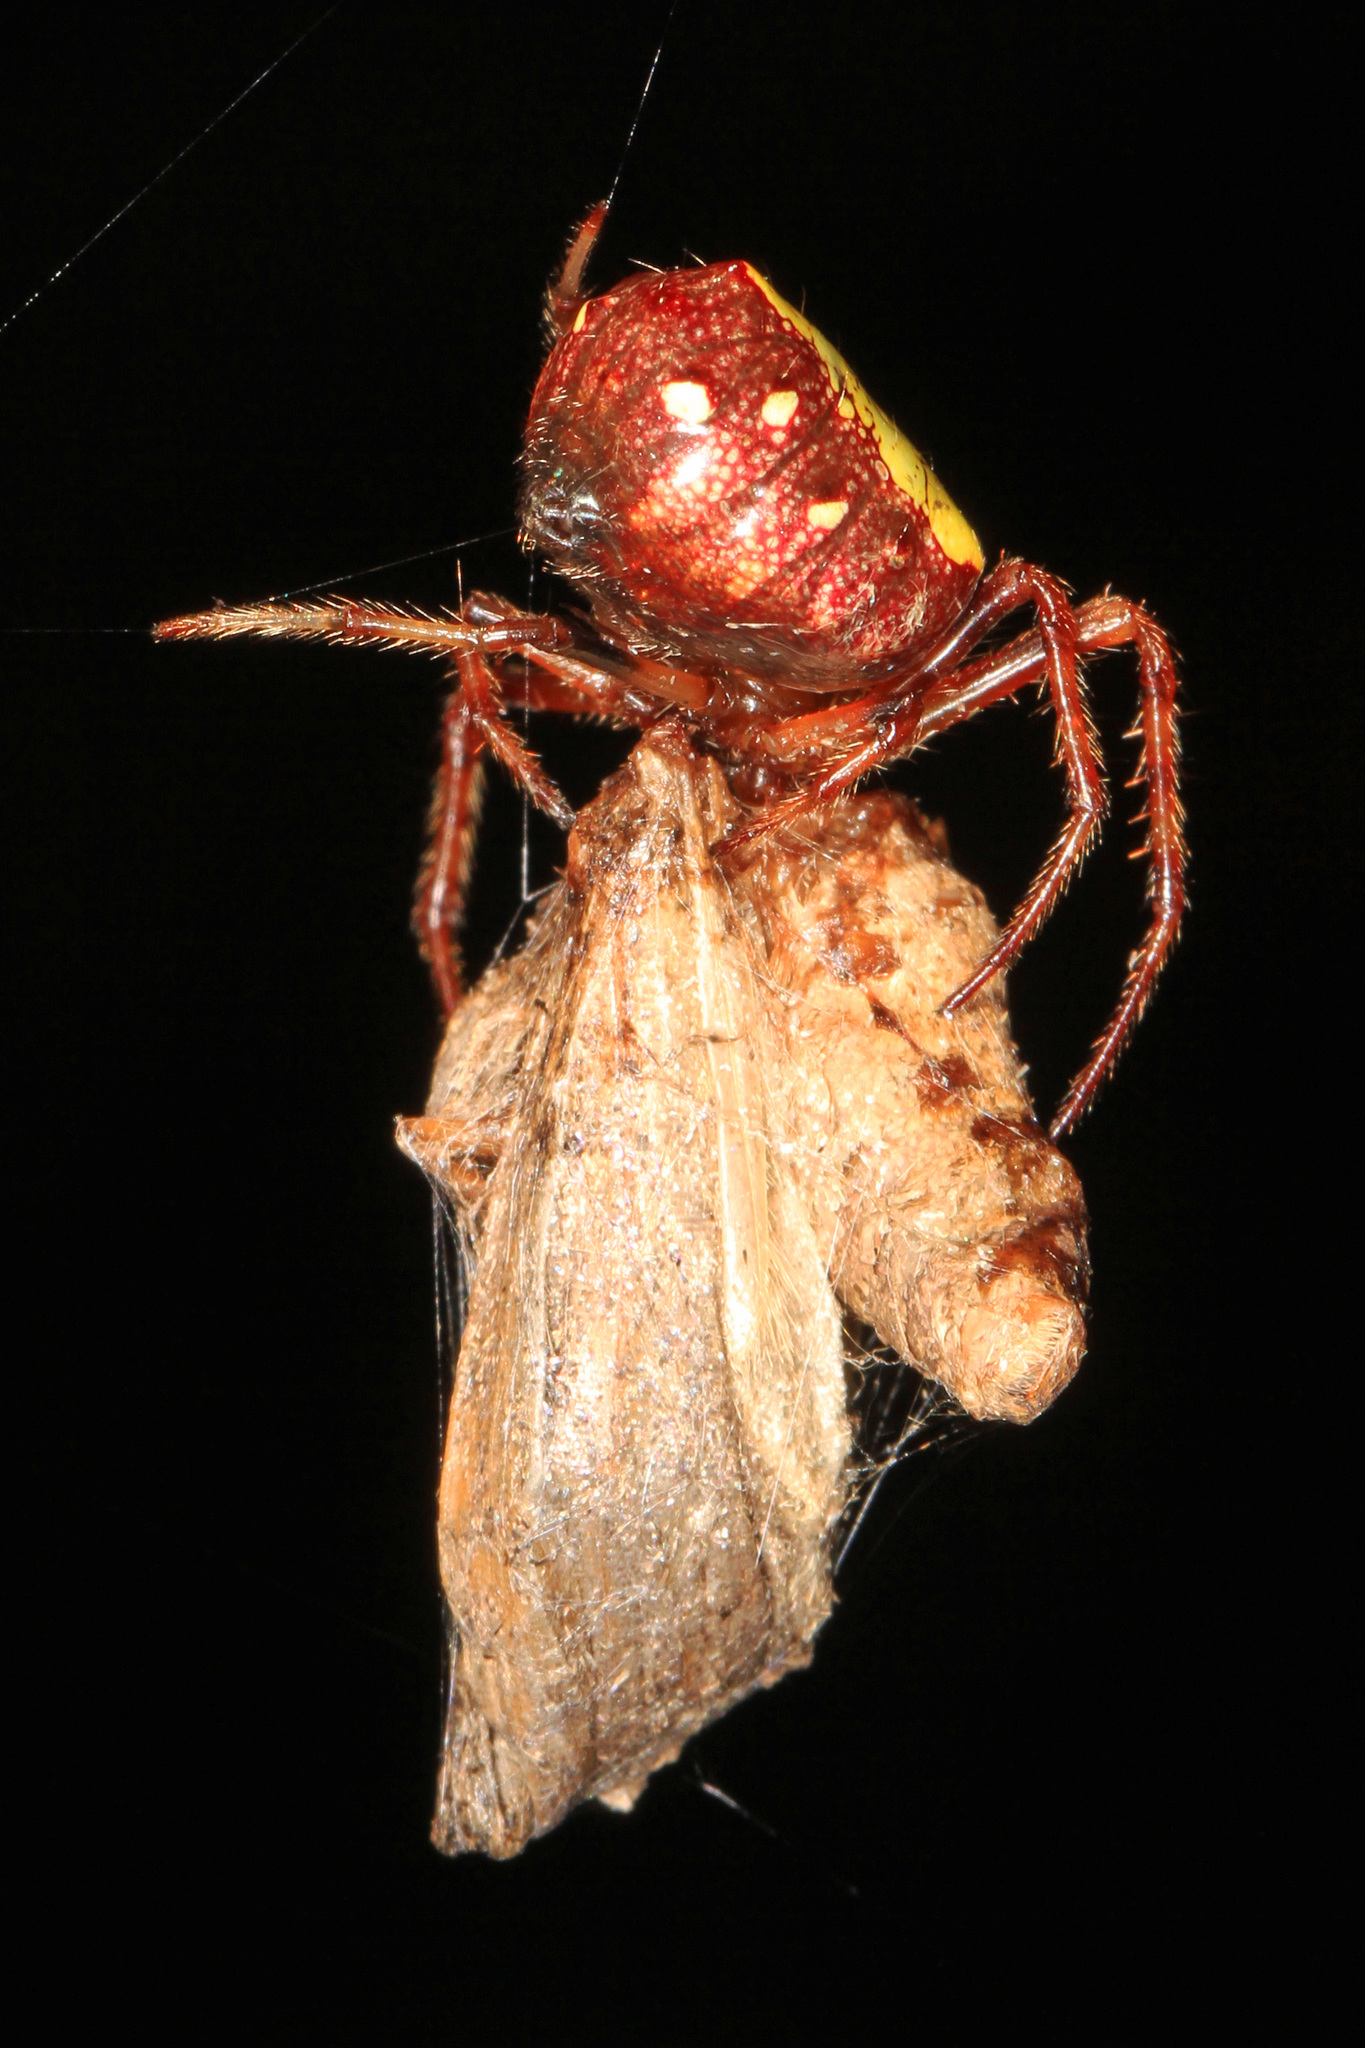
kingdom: Animalia
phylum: Arthropoda
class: Arachnida
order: Araneae
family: Araneidae
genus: Verrucosa
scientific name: Verrucosa arenata
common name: Orb weavers
